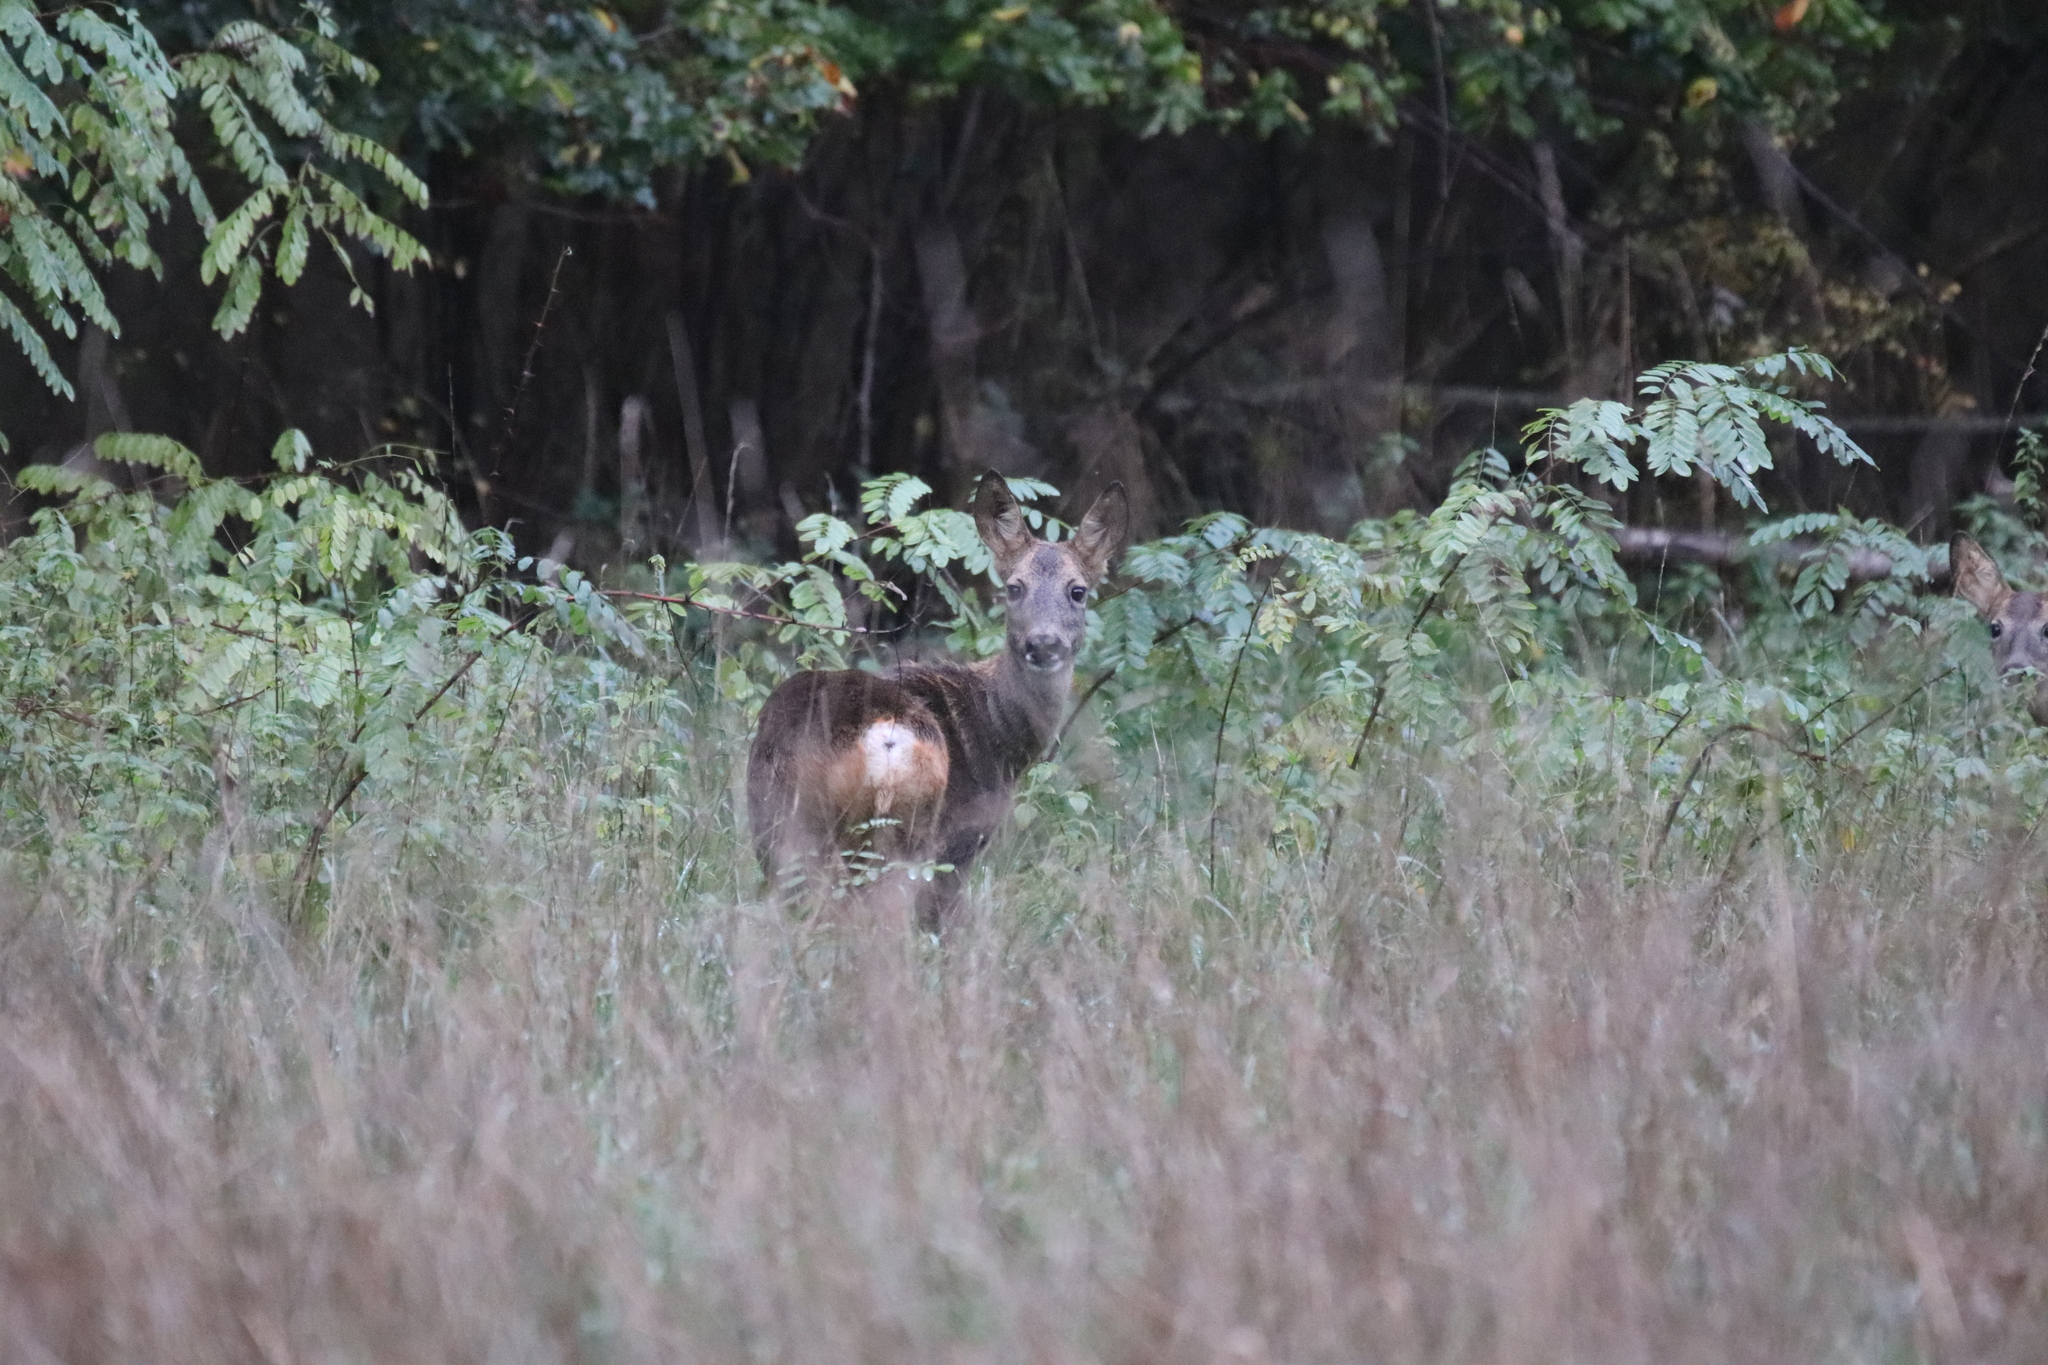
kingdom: Animalia
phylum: Chordata
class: Mammalia
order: Artiodactyla
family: Cervidae
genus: Capreolus
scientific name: Capreolus capreolus
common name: Western roe deer
